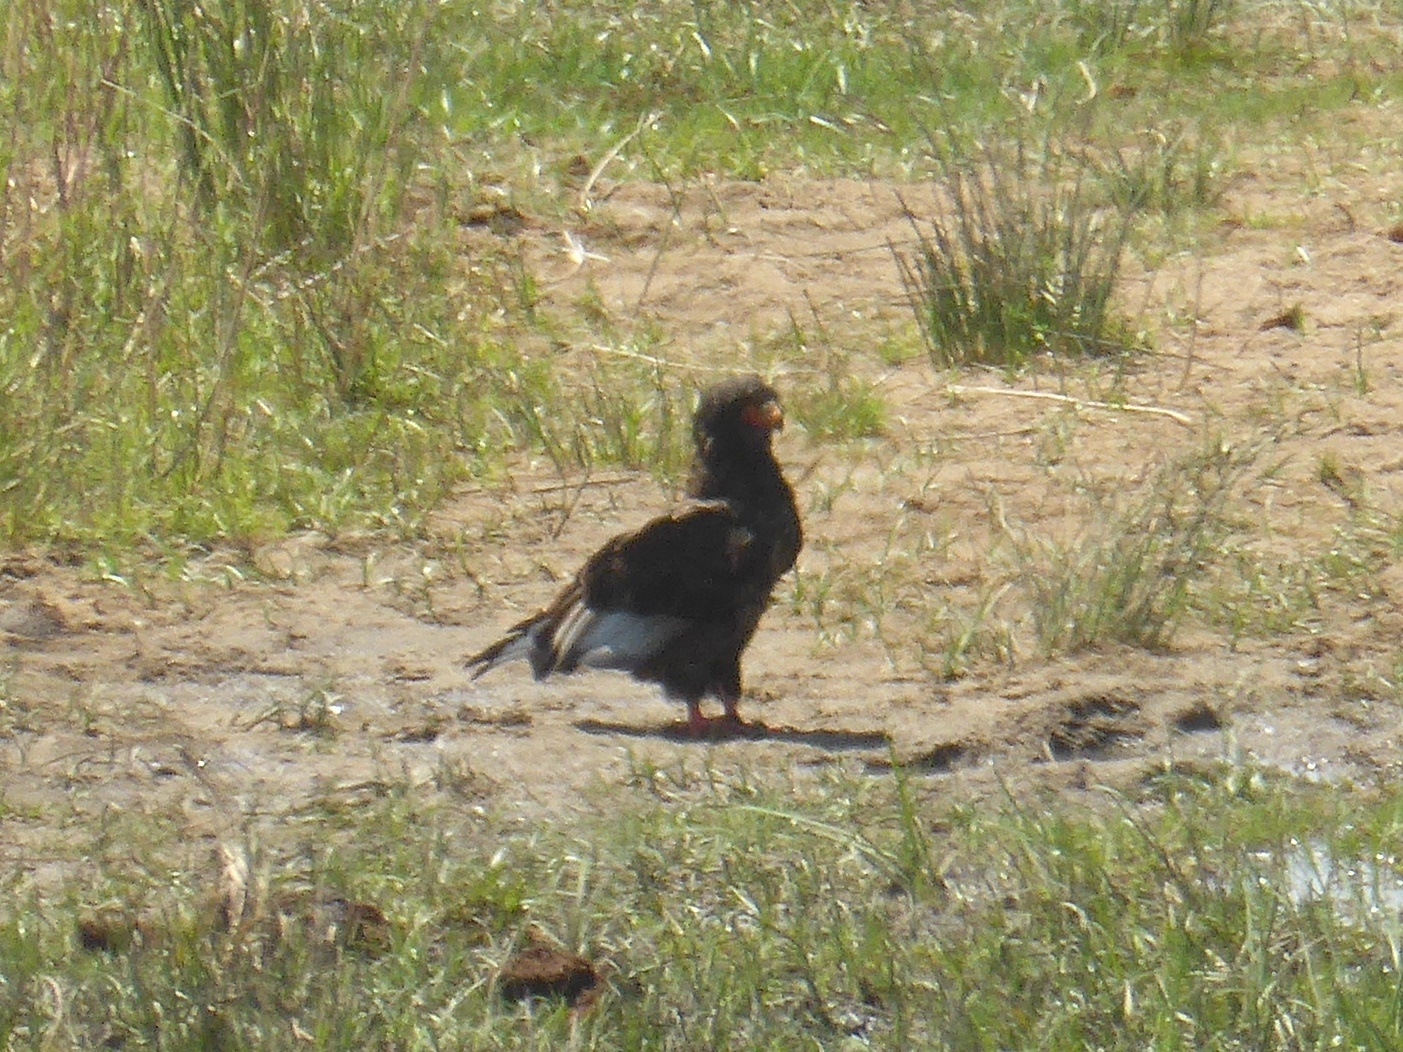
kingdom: Animalia
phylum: Chordata
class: Aves
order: Accipitriformes
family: Accipitridae
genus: Terathopius
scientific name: Terathopius ecaudatus
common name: Bateleur
